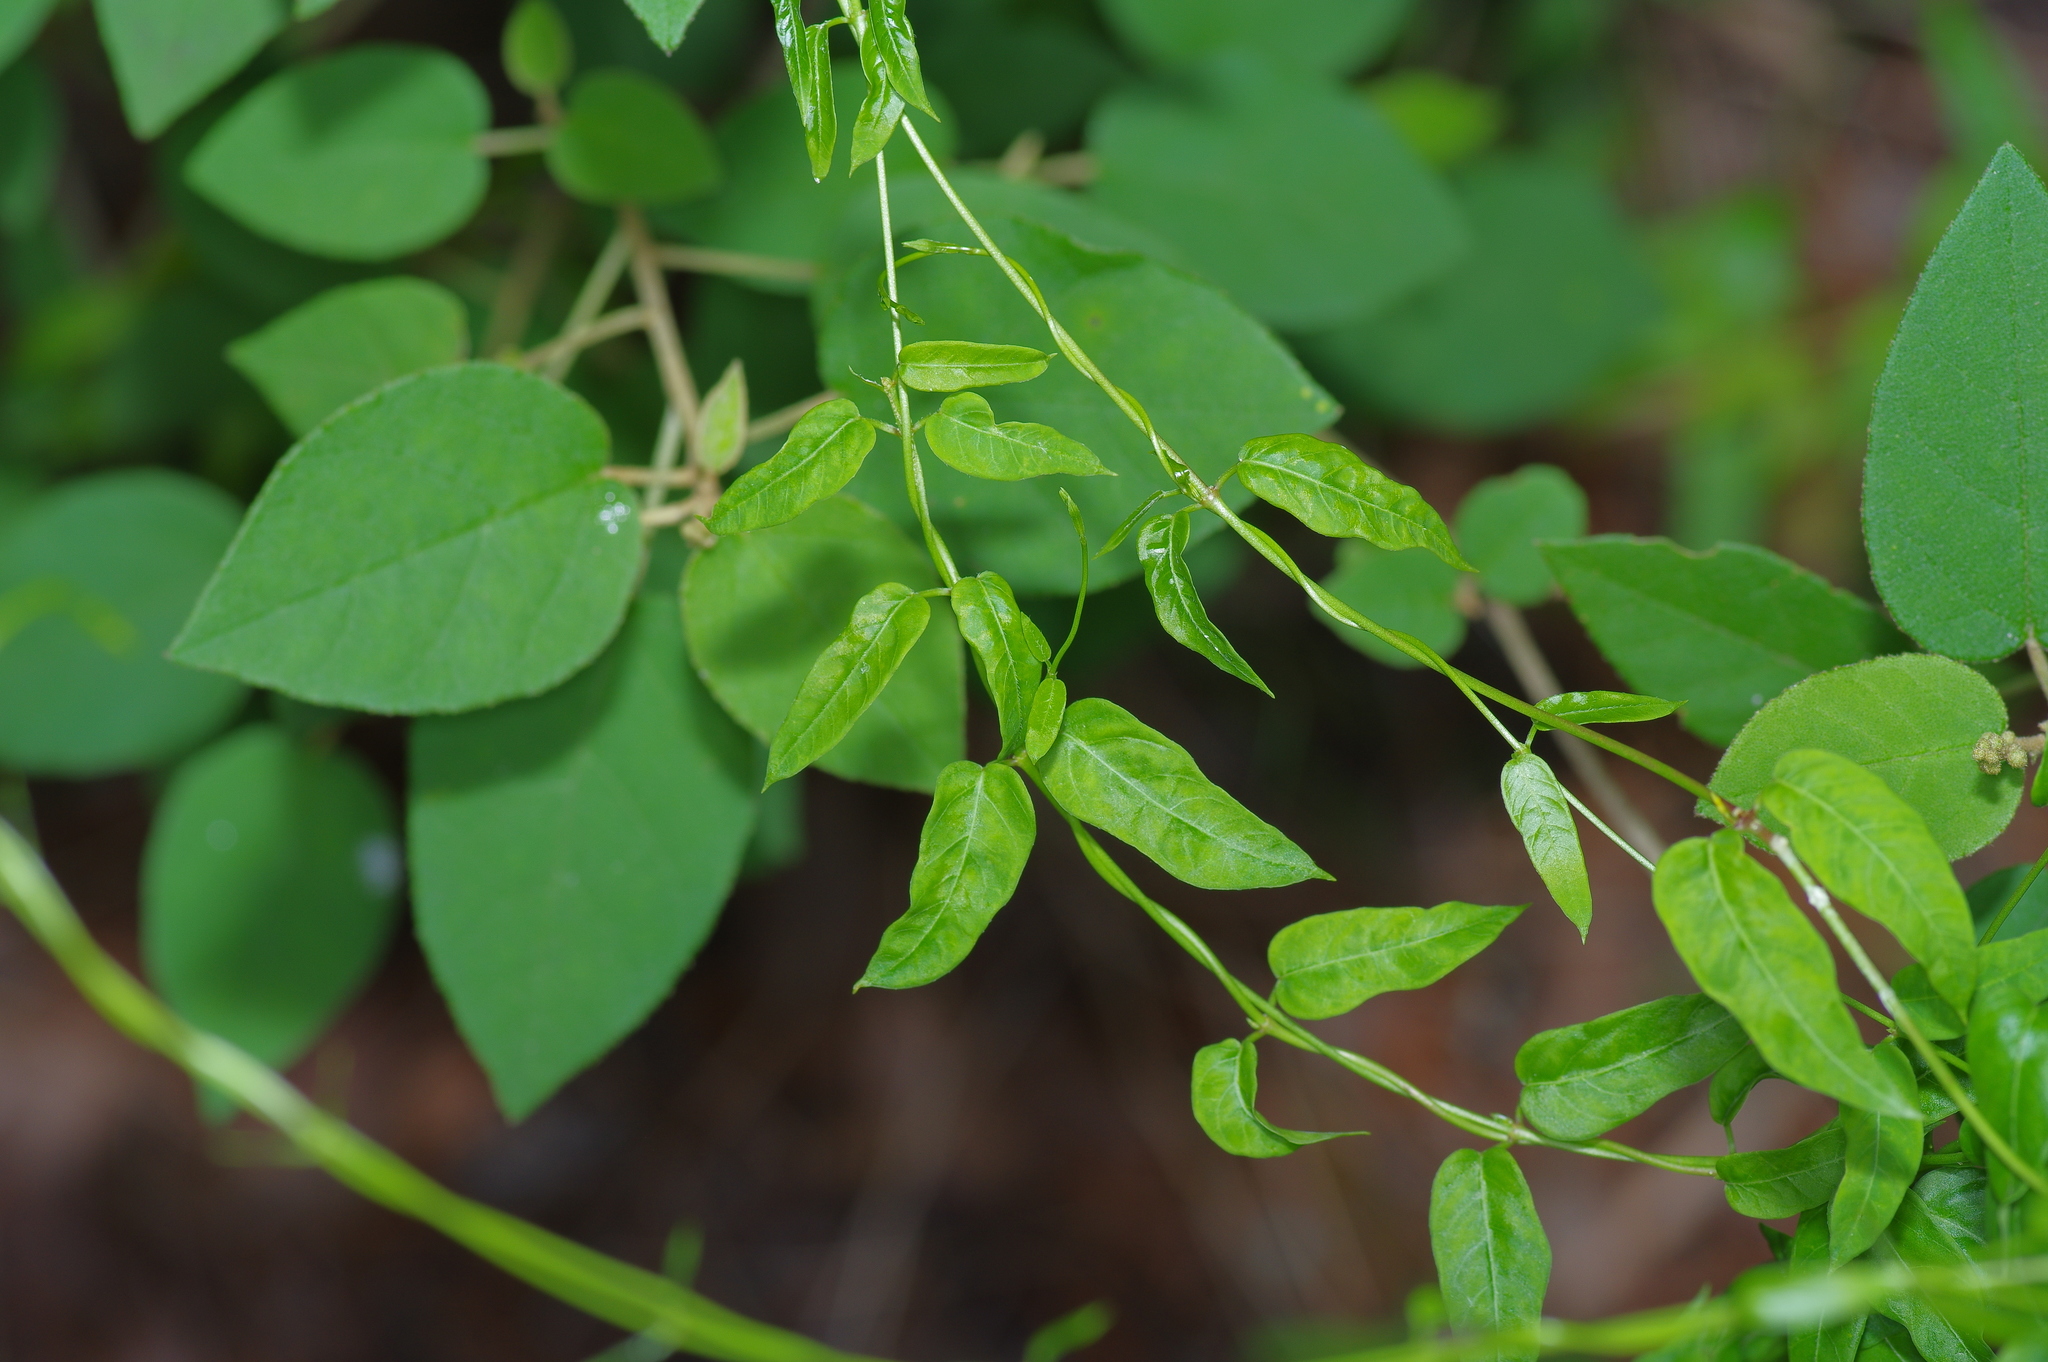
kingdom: Plantae
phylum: Tracheophyta
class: Magnoliopsida
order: Gentianales
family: Apocynaceae
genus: Metastelma
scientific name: Metastelma barbigerum
